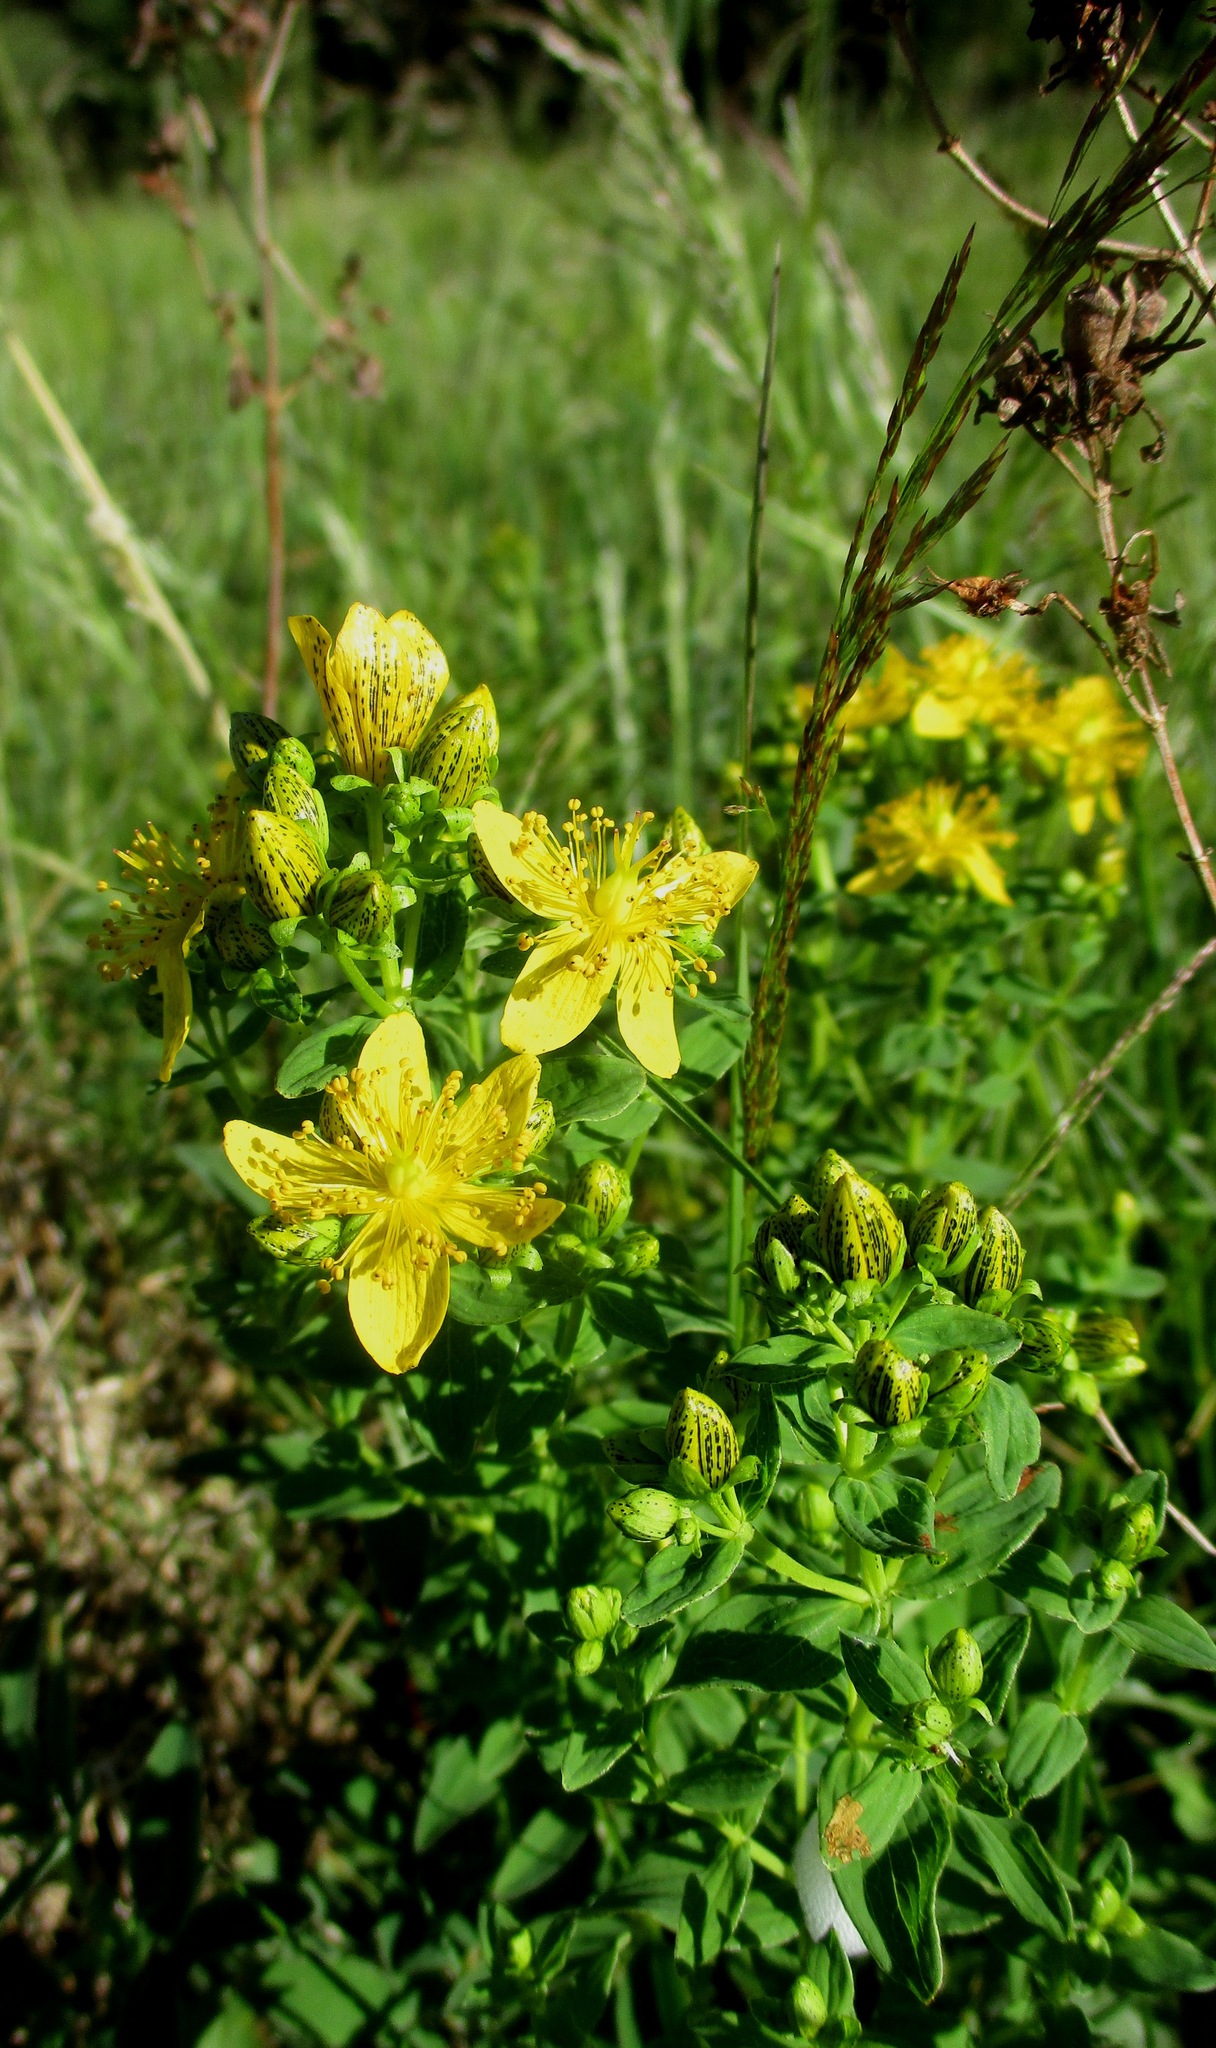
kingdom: Plantae
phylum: Tracheophyta
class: Magnoliopsida
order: Malpighiales
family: Hypericaceae
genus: Hypericum
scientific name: Hypericum maculatum
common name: Imperforate st. john's-wort
